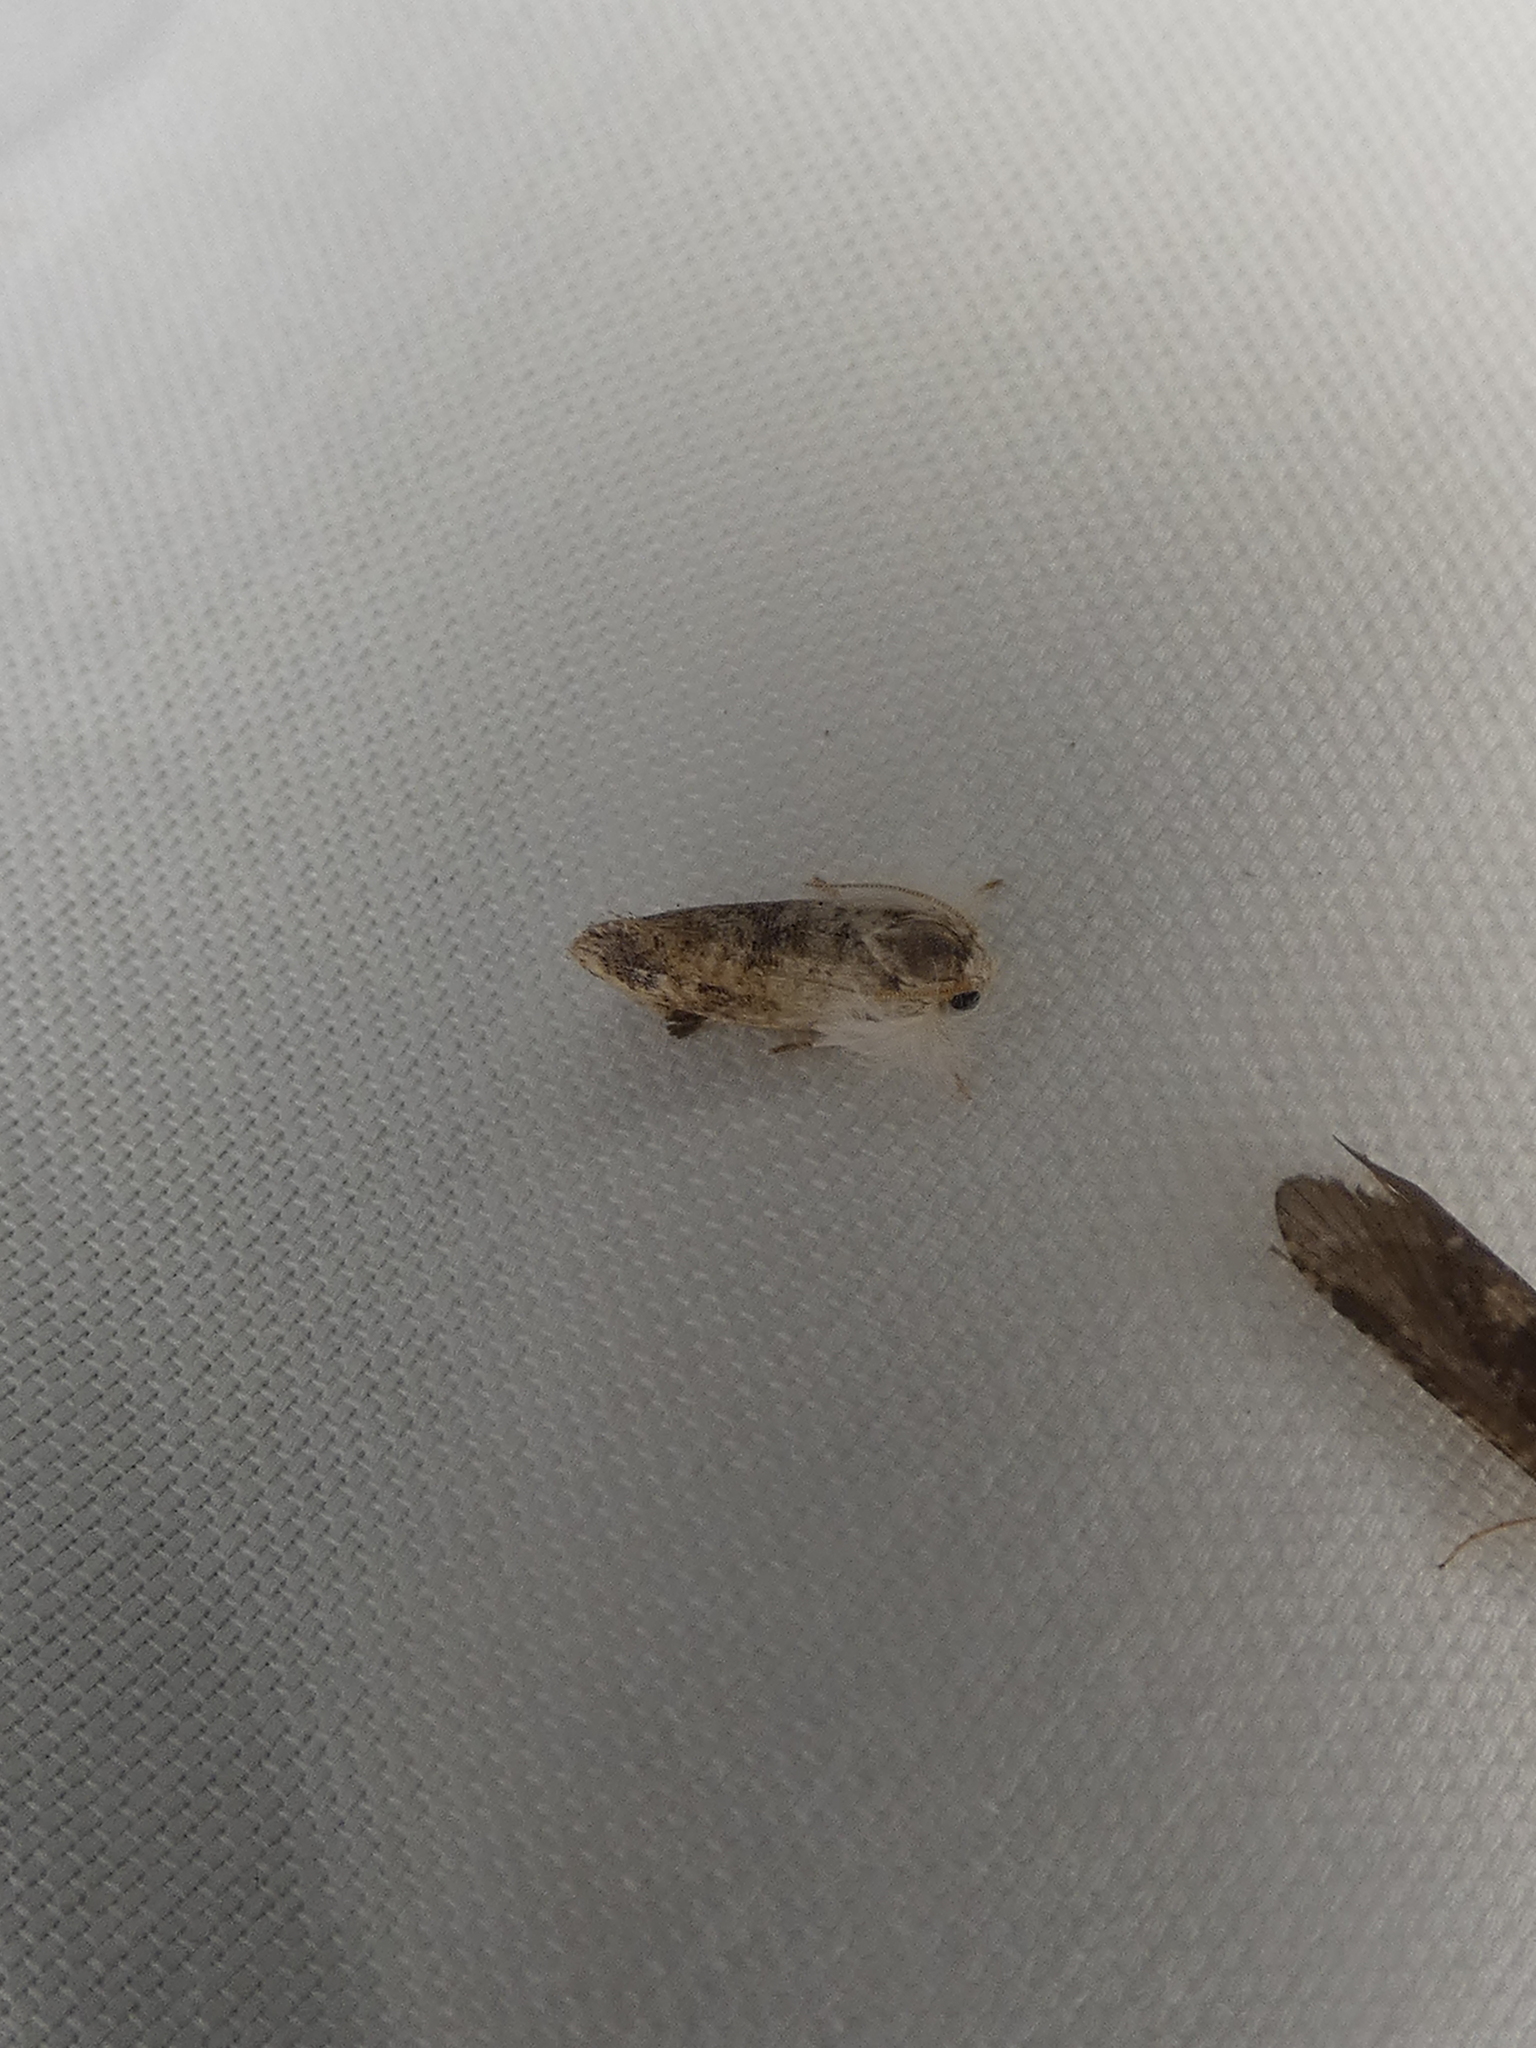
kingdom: Animalia
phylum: Arthropoda
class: Insecta
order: Lepidoptera
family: Tineidae
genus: Acrolophus
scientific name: Acrolophus mycetophagus
